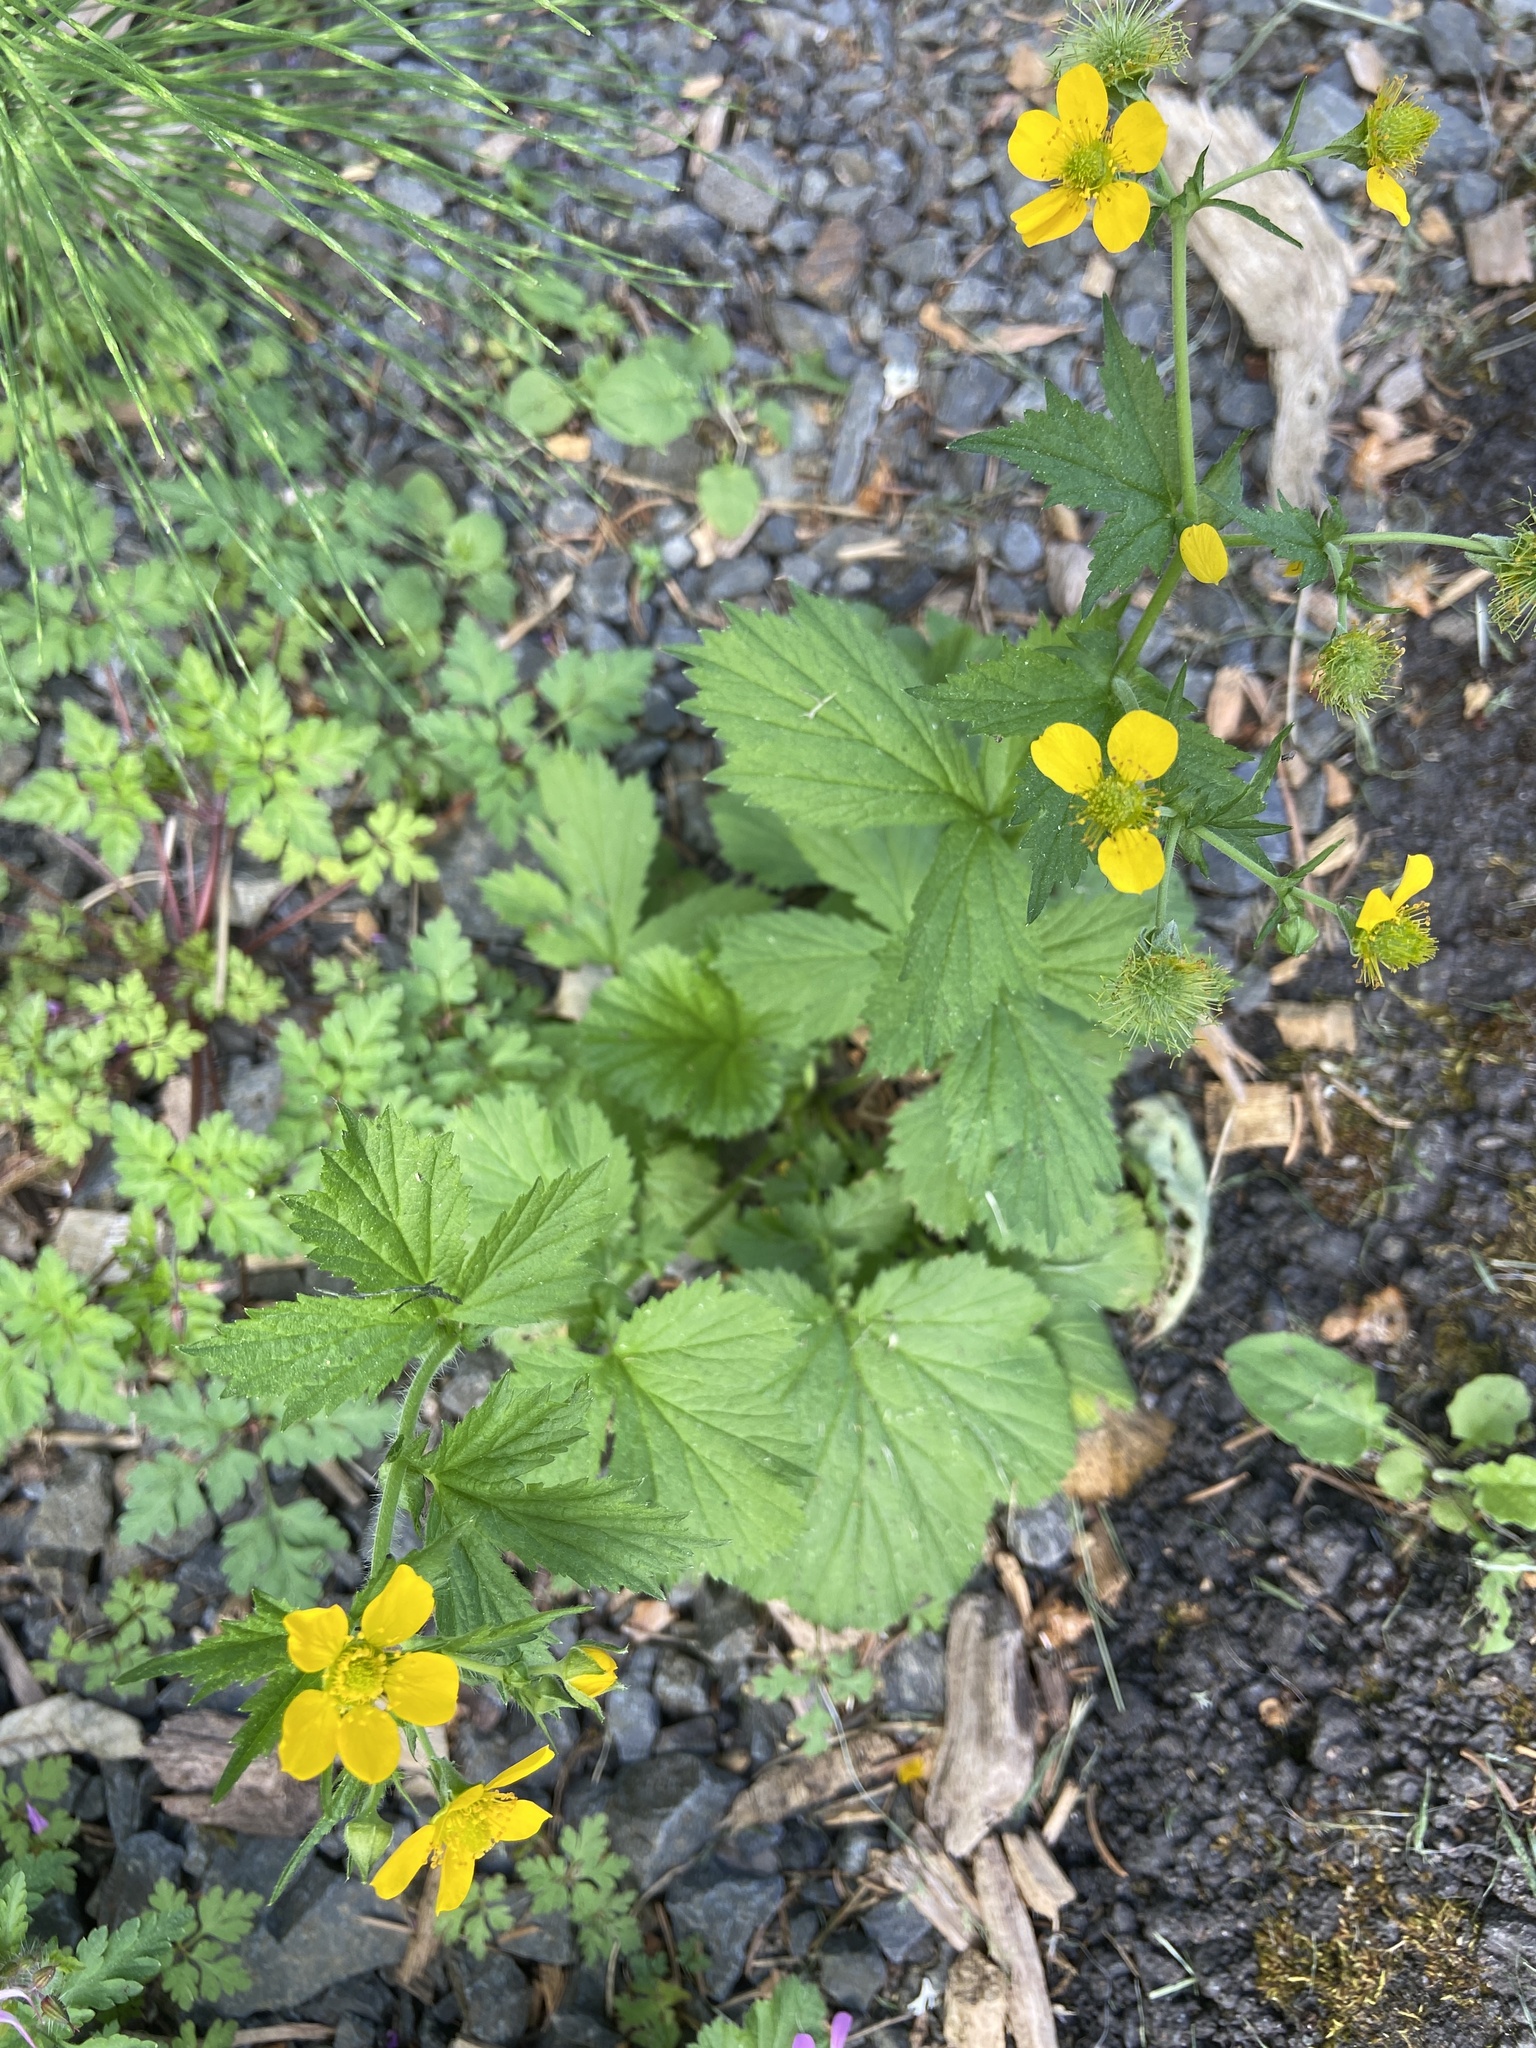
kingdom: Plantae
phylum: Tracheophyta
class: Magnoliopsida
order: Rosales
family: Rosaceae
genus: Geum
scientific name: Geum macrophyllum
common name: Large-leaved avens
